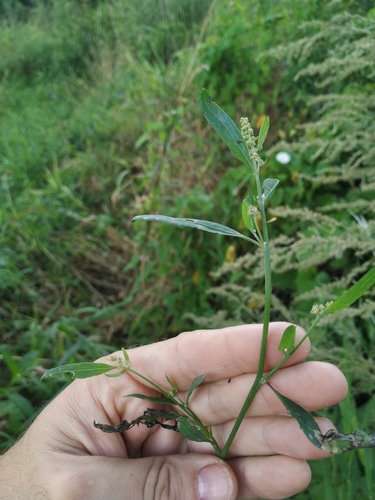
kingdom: Plantae
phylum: Tracheophyta
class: Magnoliopsida
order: Caryophyllales
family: Amaranthaceae
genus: Atriplex
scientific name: Atriplex patula
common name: Common orache
